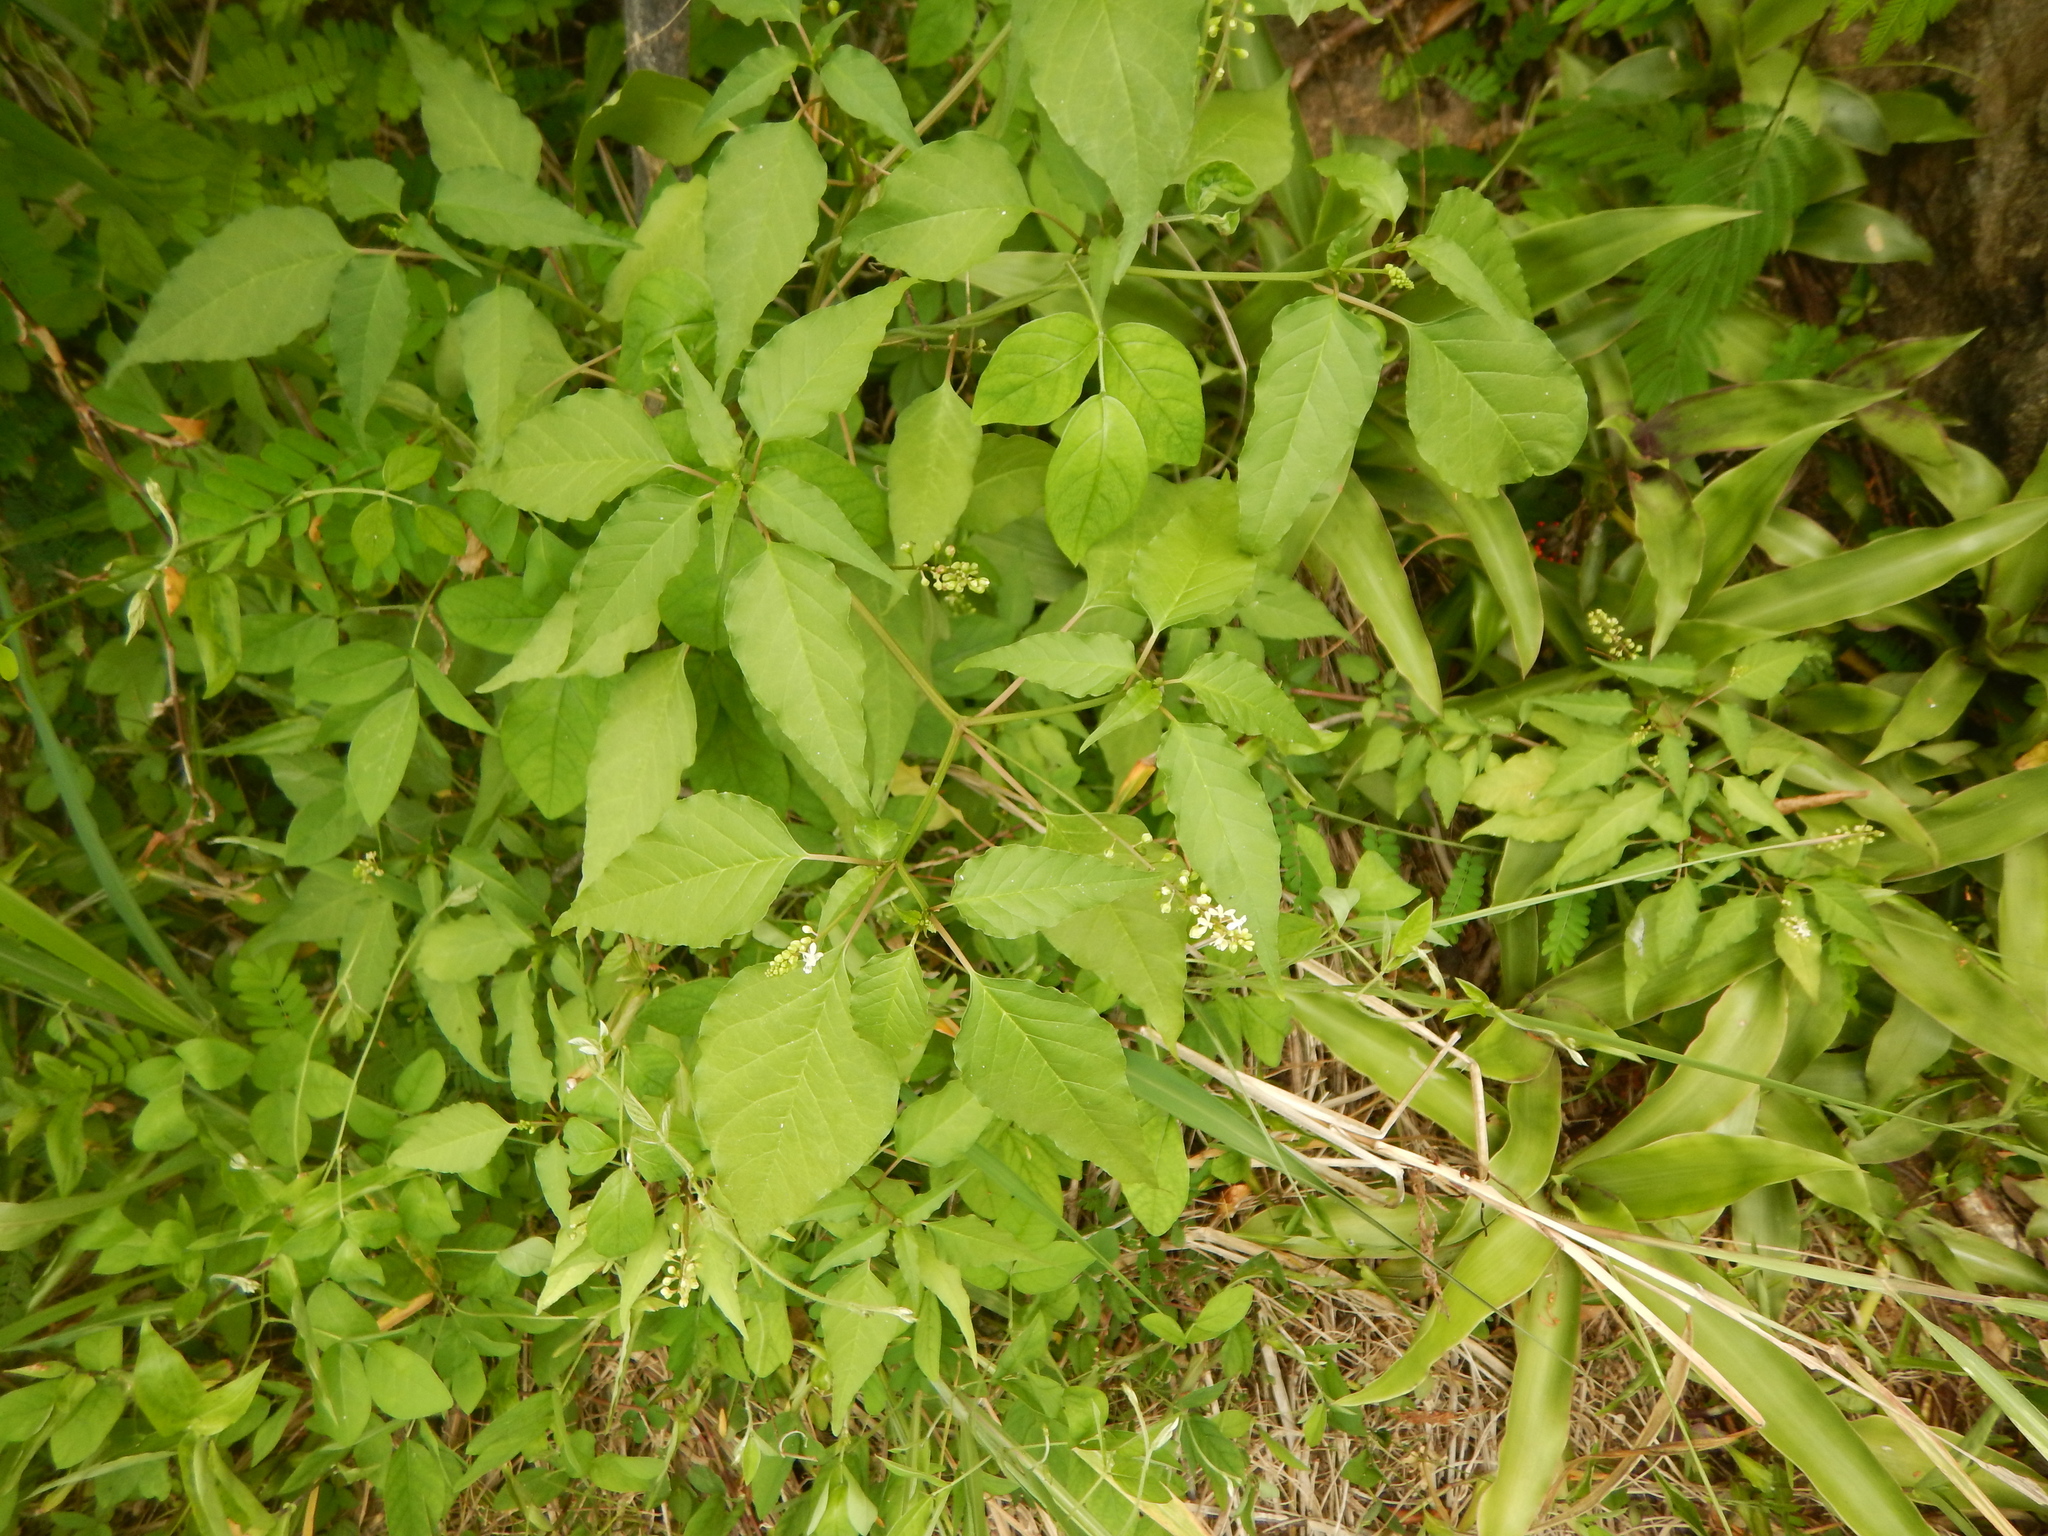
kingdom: Plantae
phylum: Tracheophyta
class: Magnoliopsida
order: Caryophyllales
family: Phytolaccaceae
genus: Rivina
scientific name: Rivina humilis
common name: Rougeplant
